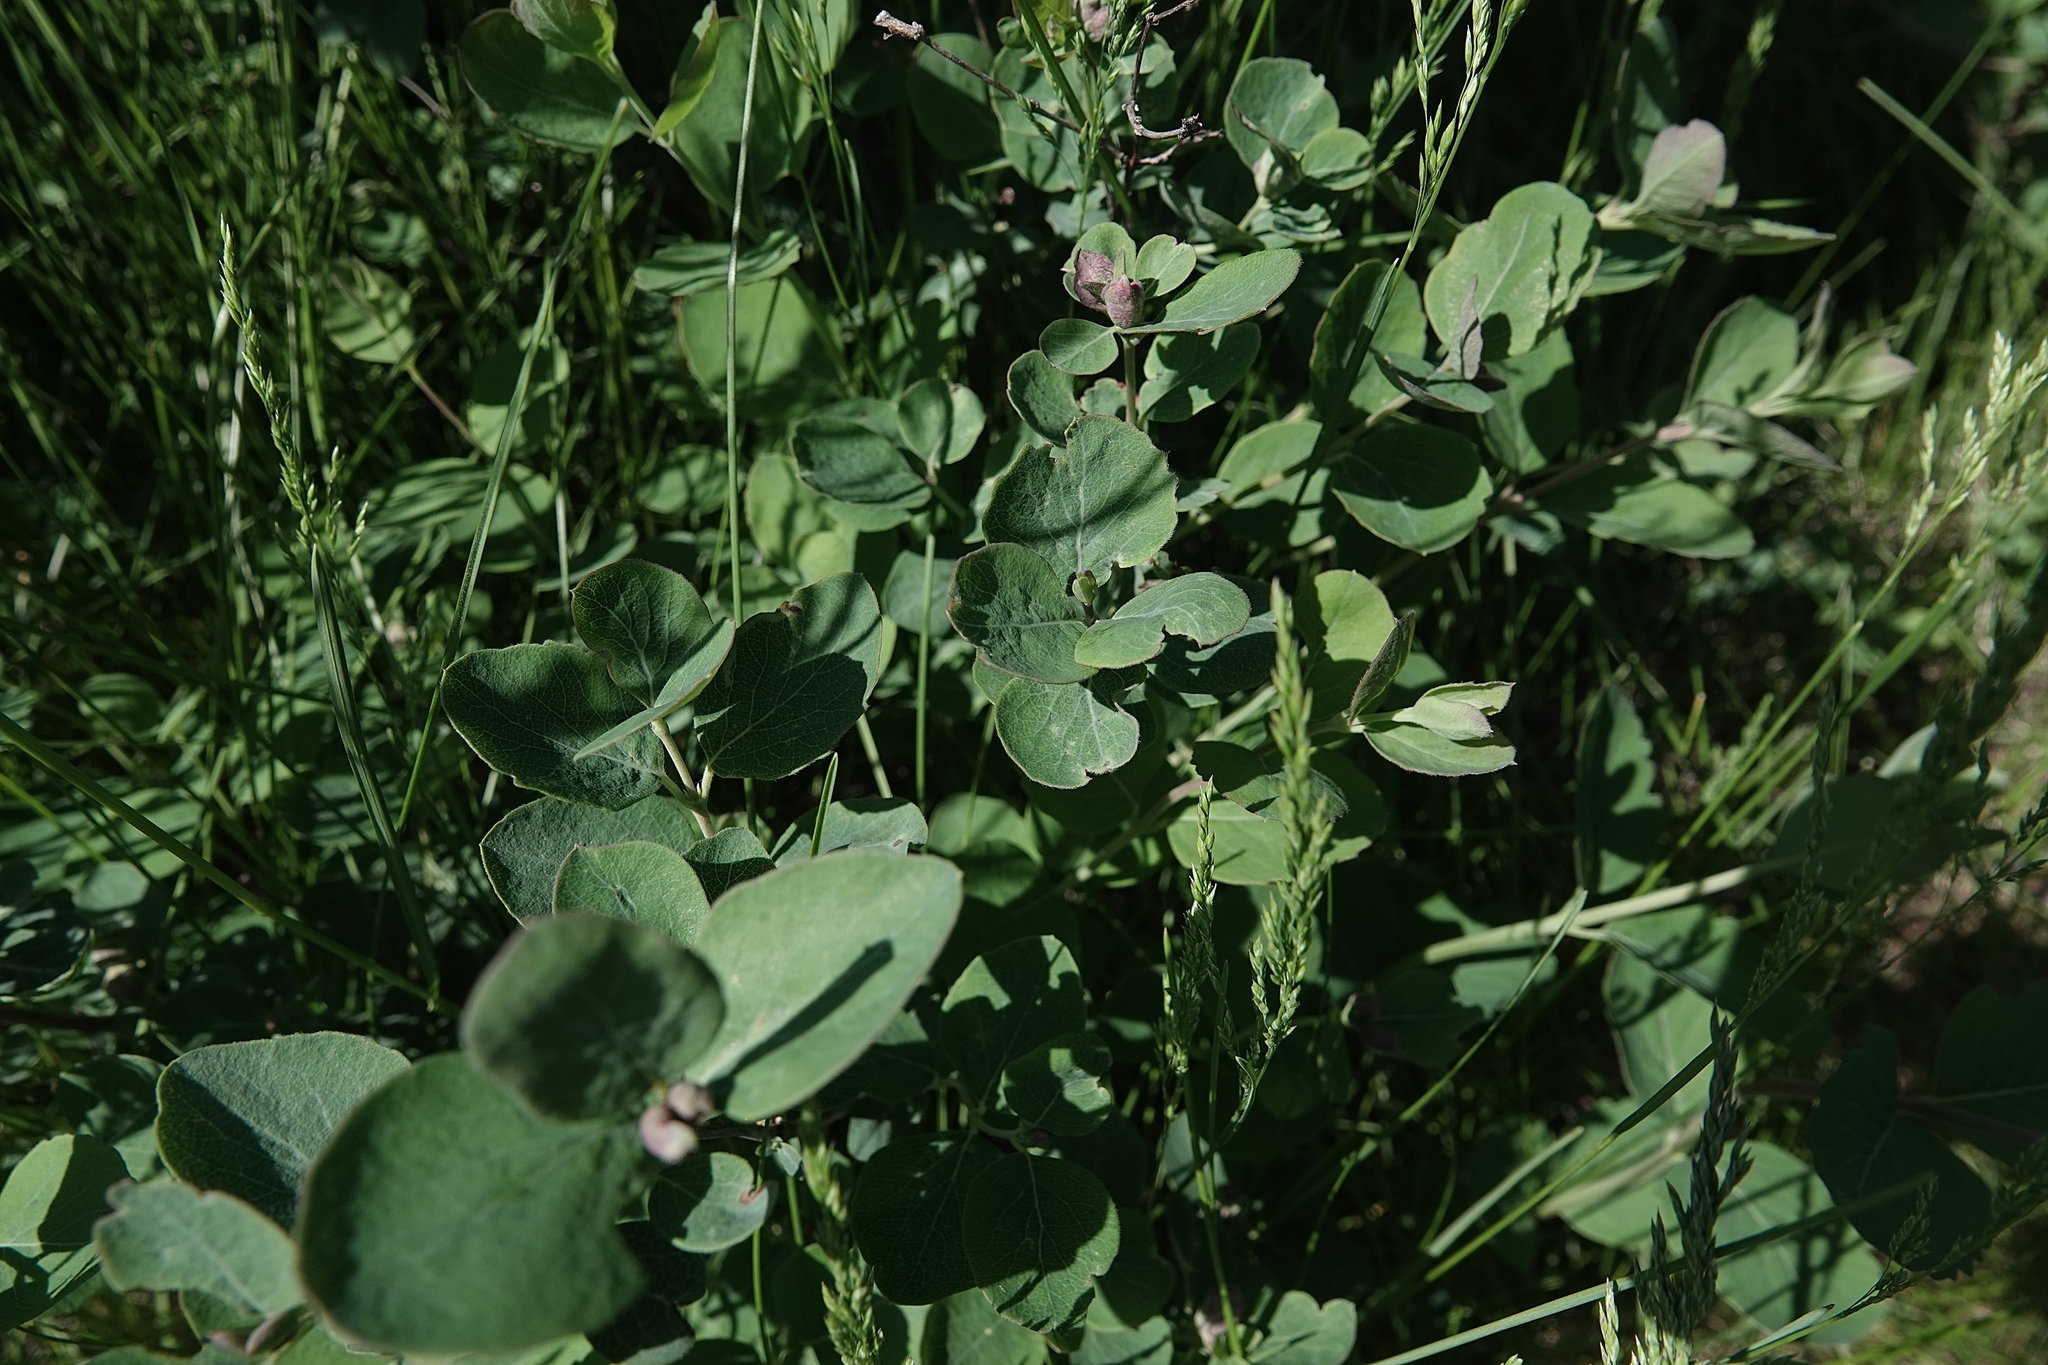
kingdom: Plantae
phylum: Tracheophyta
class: Magnoliopsida
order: Dipsacales
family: Caprifoliaceae
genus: Symphoricarpos
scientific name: Symphoricarpos occidentalis
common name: Wolfberry
